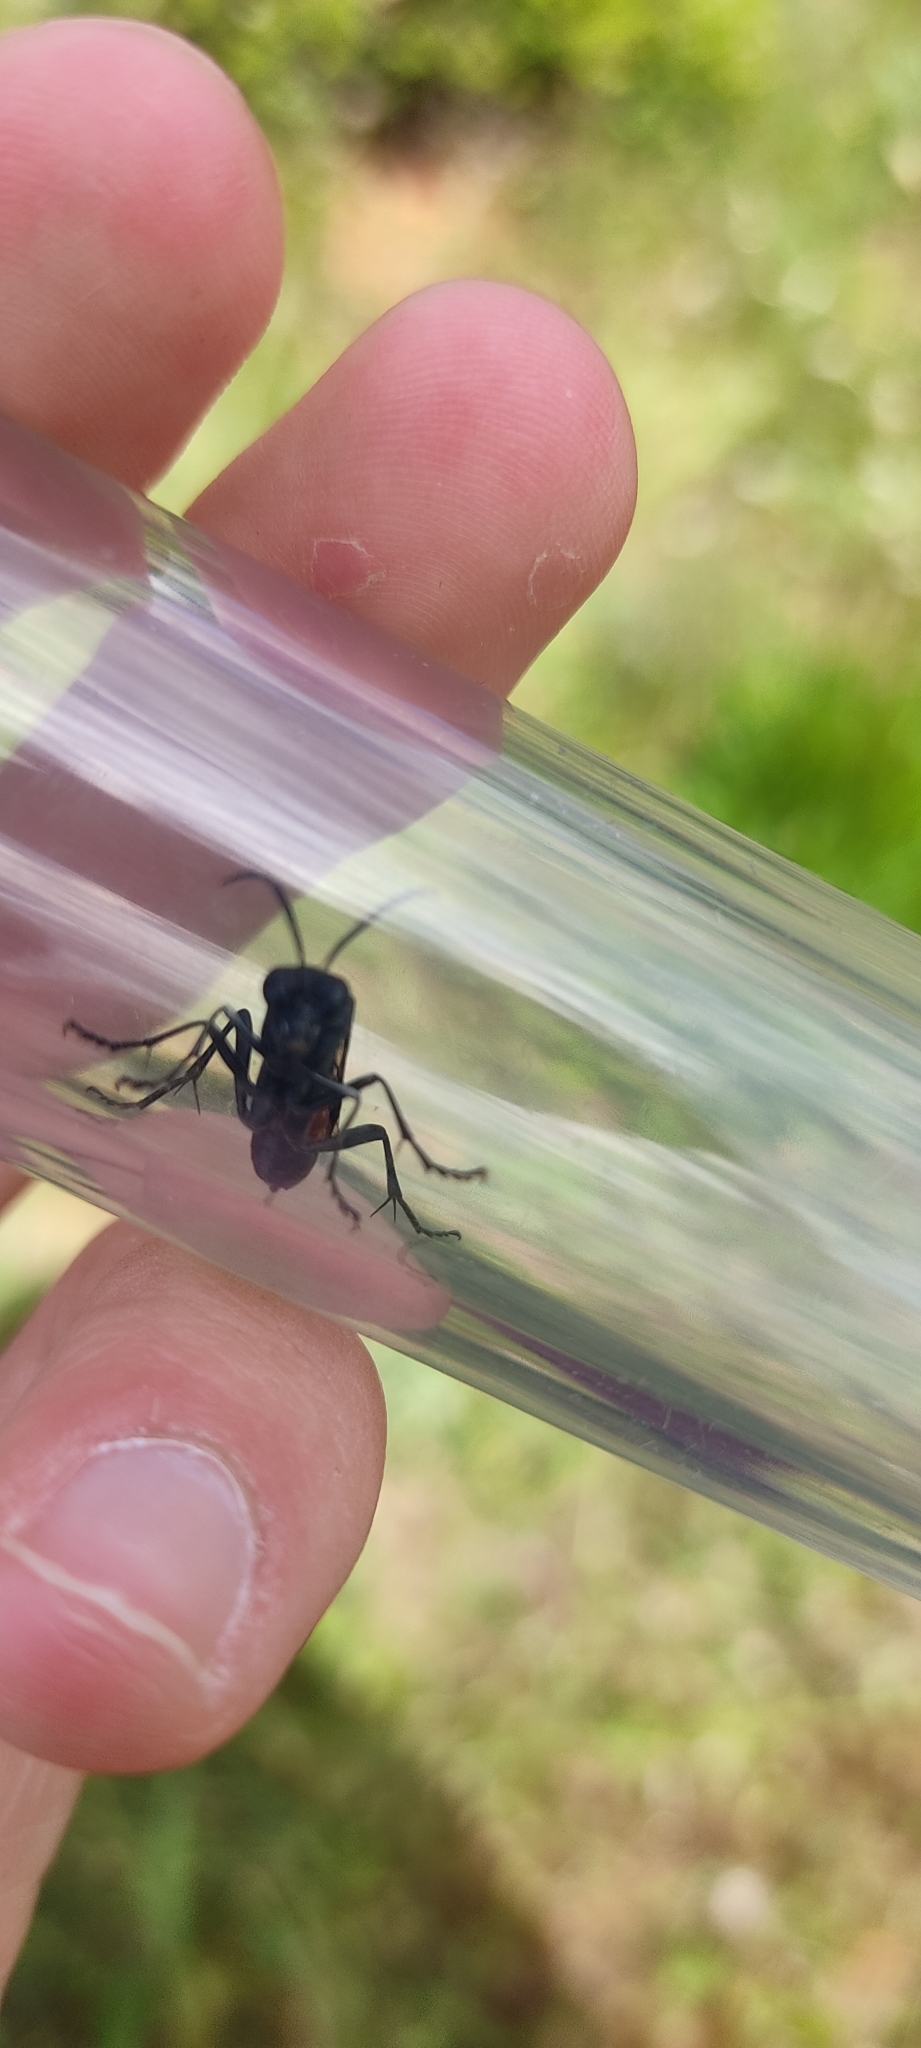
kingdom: Animalia
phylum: Arthropoda
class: Insecta
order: Hymenoptera
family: Tenthredinidae
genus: Macrophya
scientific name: Macrophya annulata
